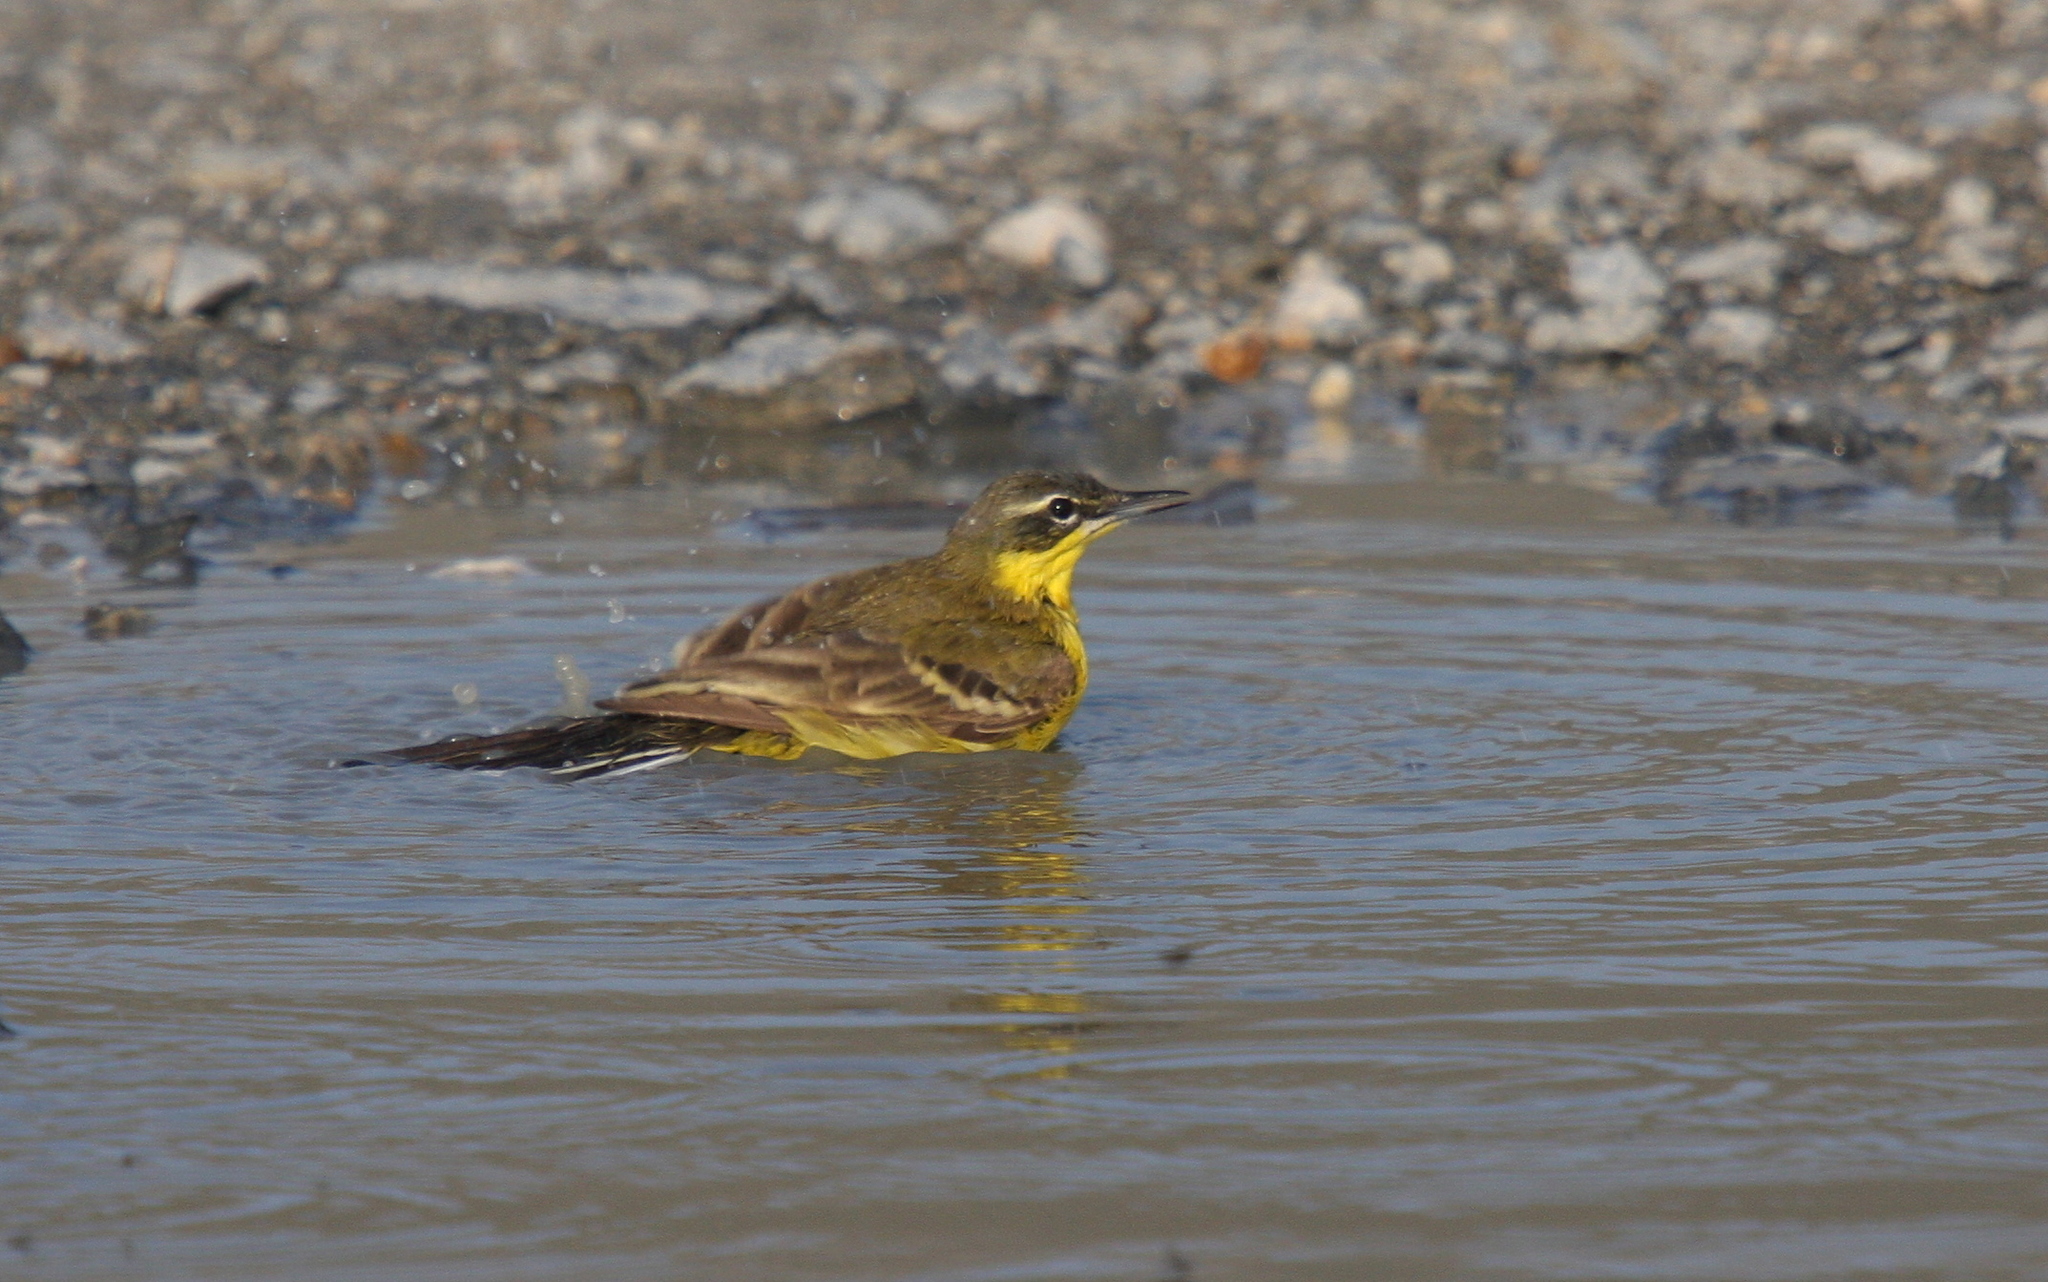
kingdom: Animalia
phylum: Chordata
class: Aves
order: Passeriformes
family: Motacillidae
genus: Motacilla
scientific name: Motacilla flava
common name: Western yellow wagtail
